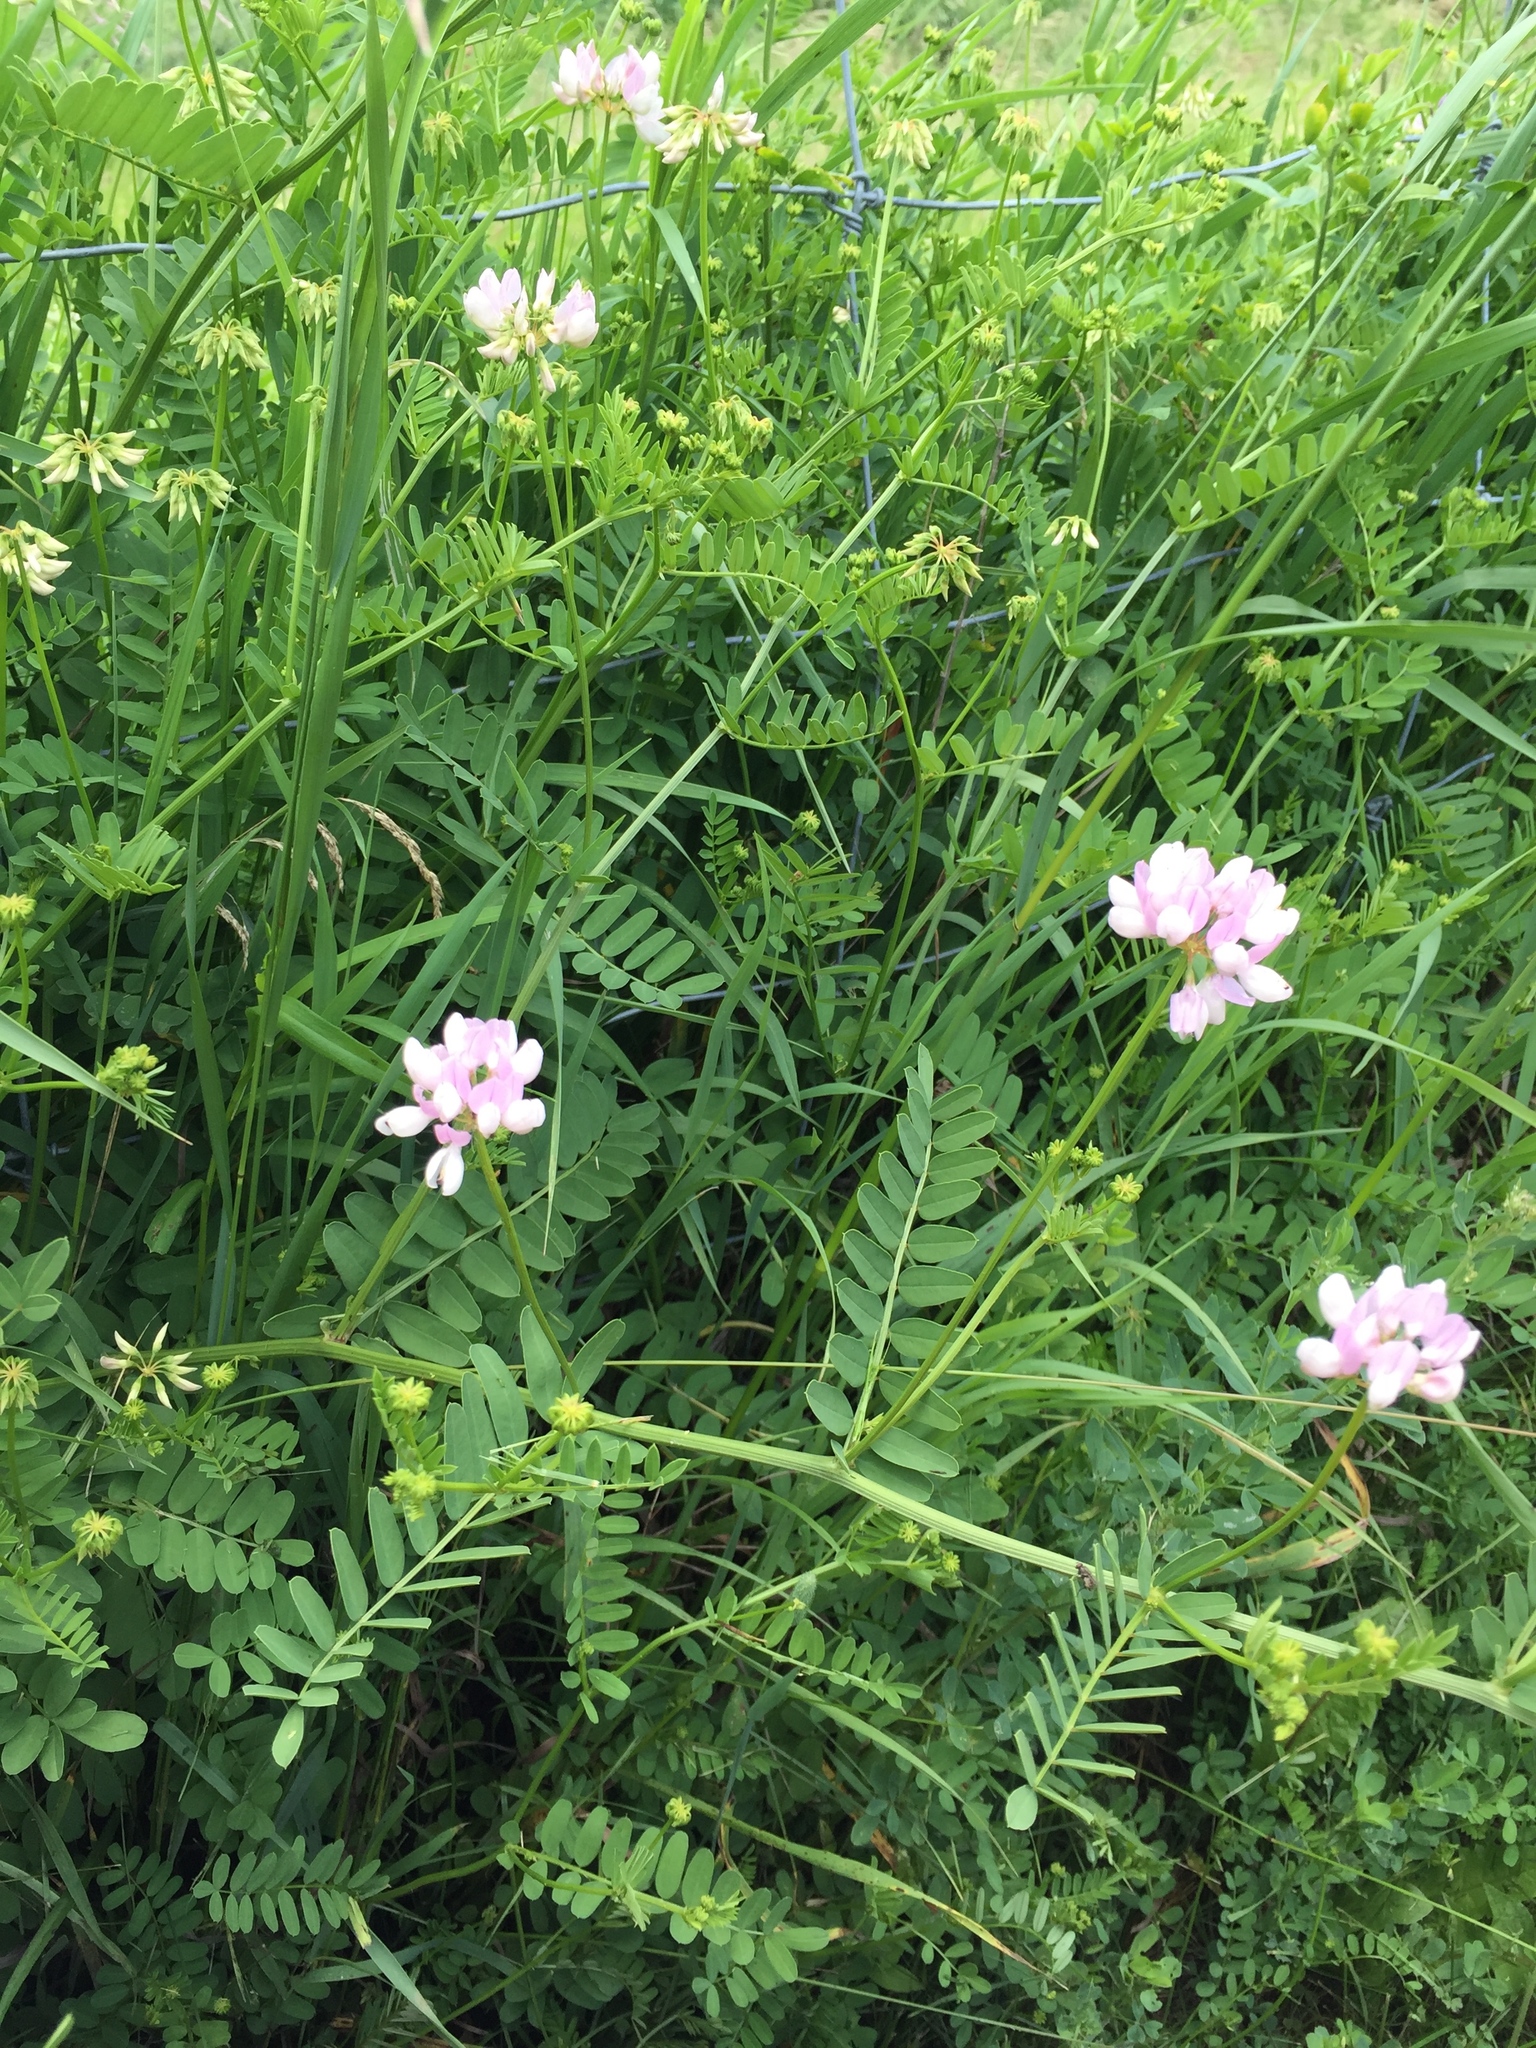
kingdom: Plantae
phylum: Tracheophyta
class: Magnoliopsida
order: Fabales
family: Fabaceae
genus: Coronilla
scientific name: Coronilla varia
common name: Crownvetch
